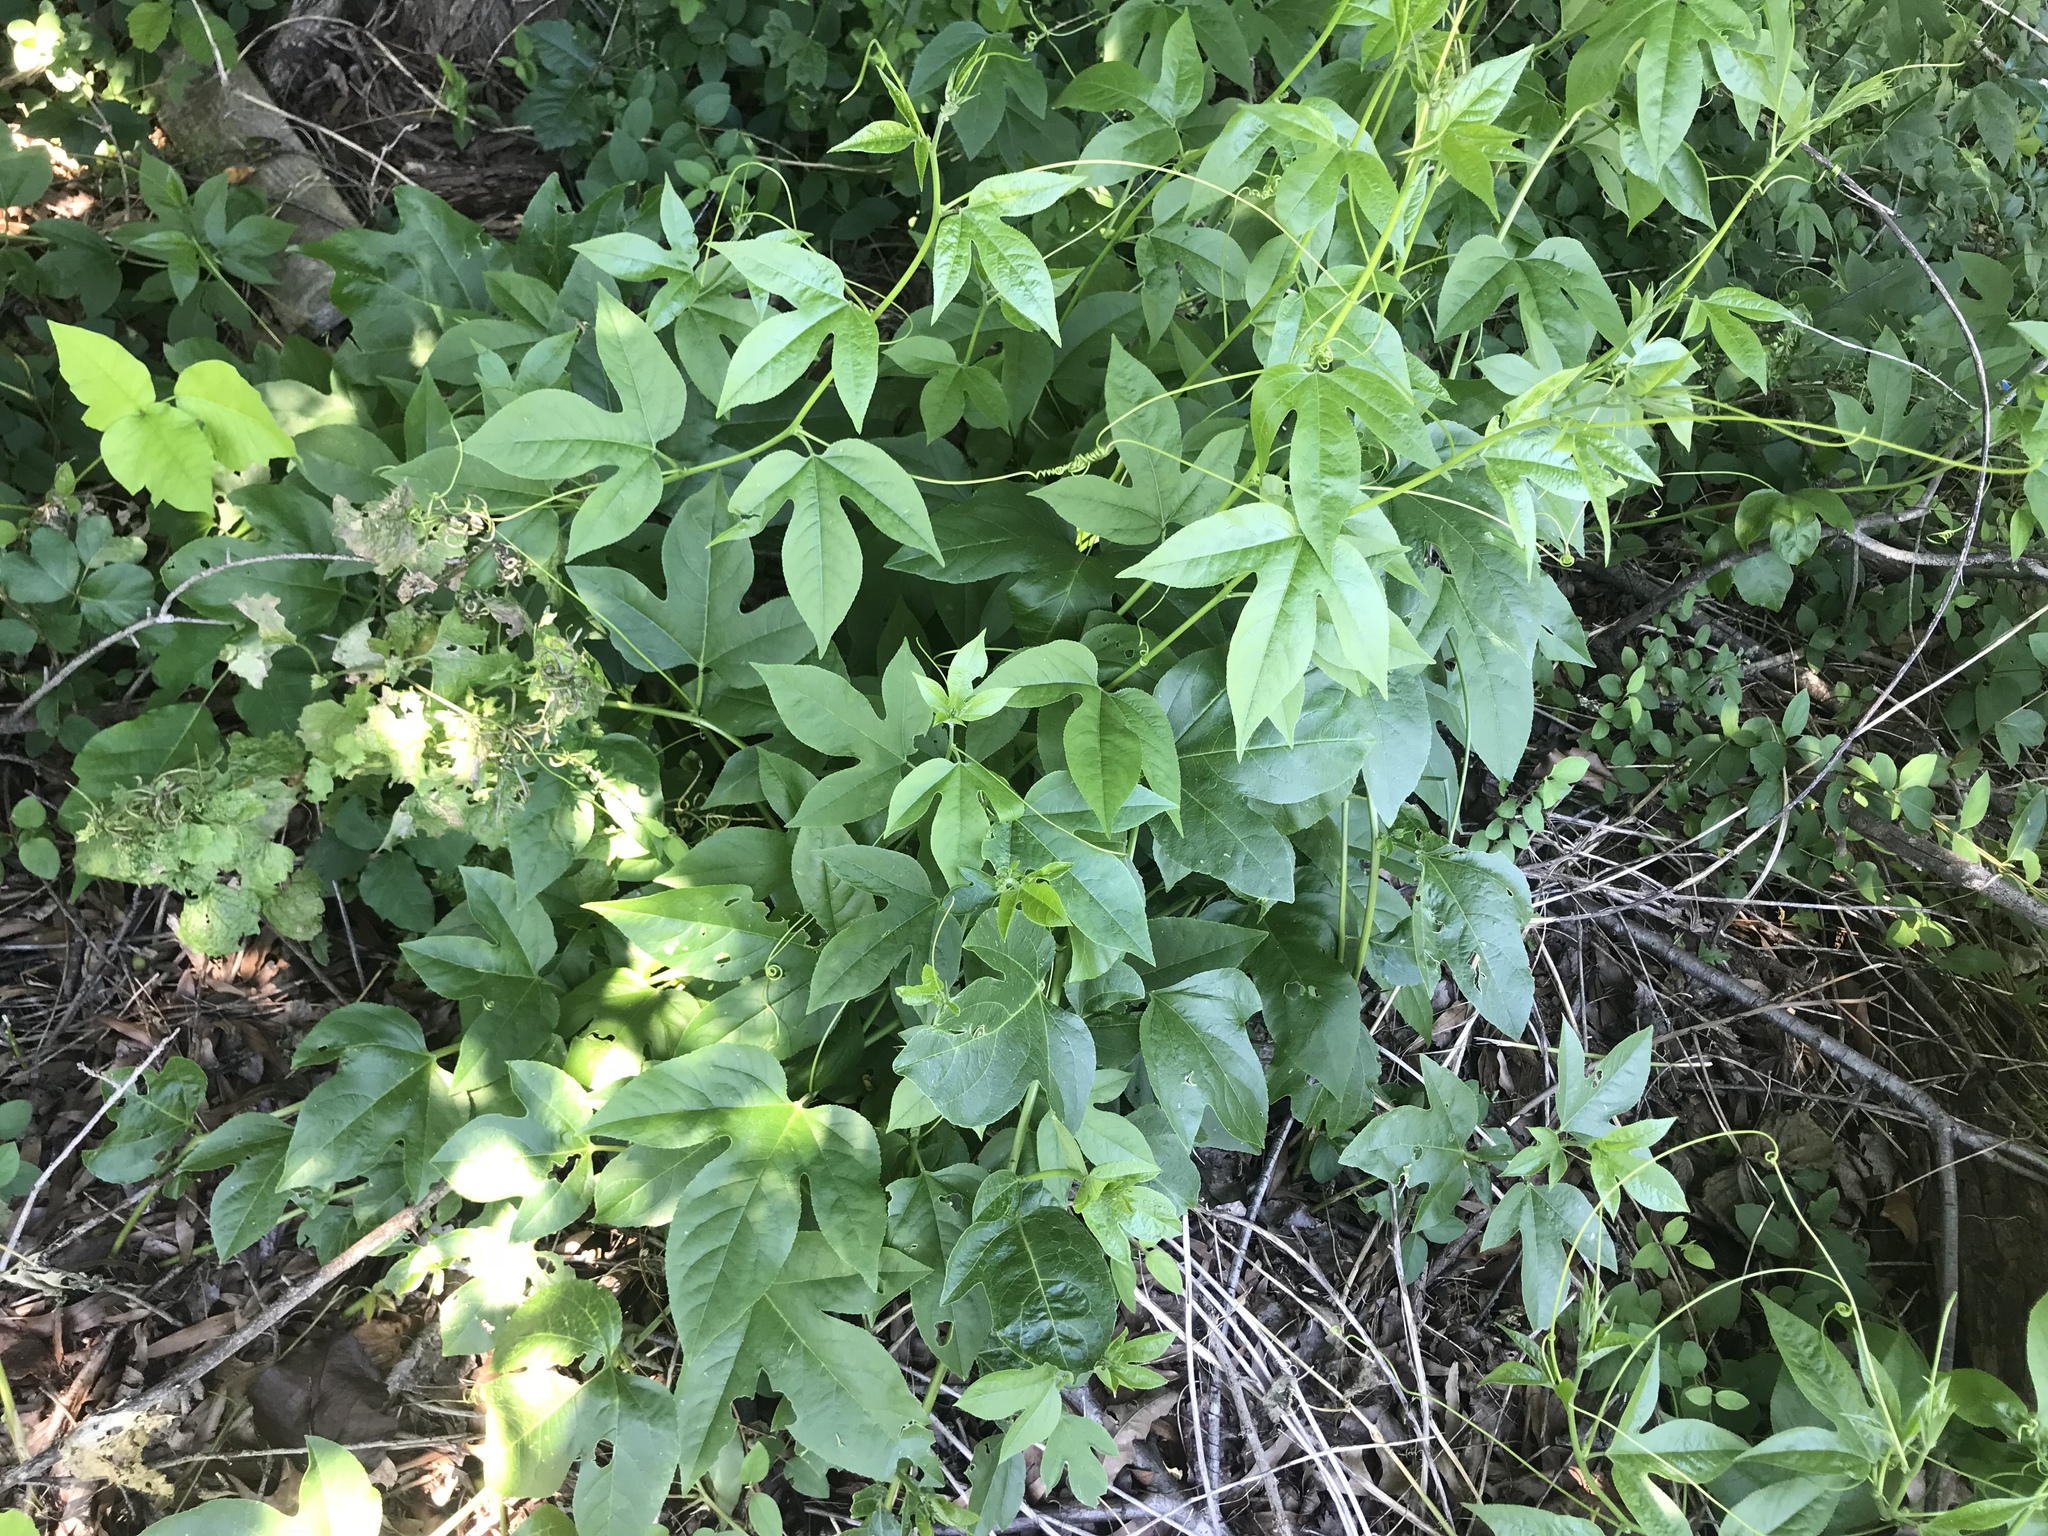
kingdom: Plantae
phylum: Tracheophyta
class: Magnoliopsida
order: Malpighiales
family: Passifloraceae
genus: Passiflora
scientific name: Passiflora incarnata
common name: Apricot-vine
